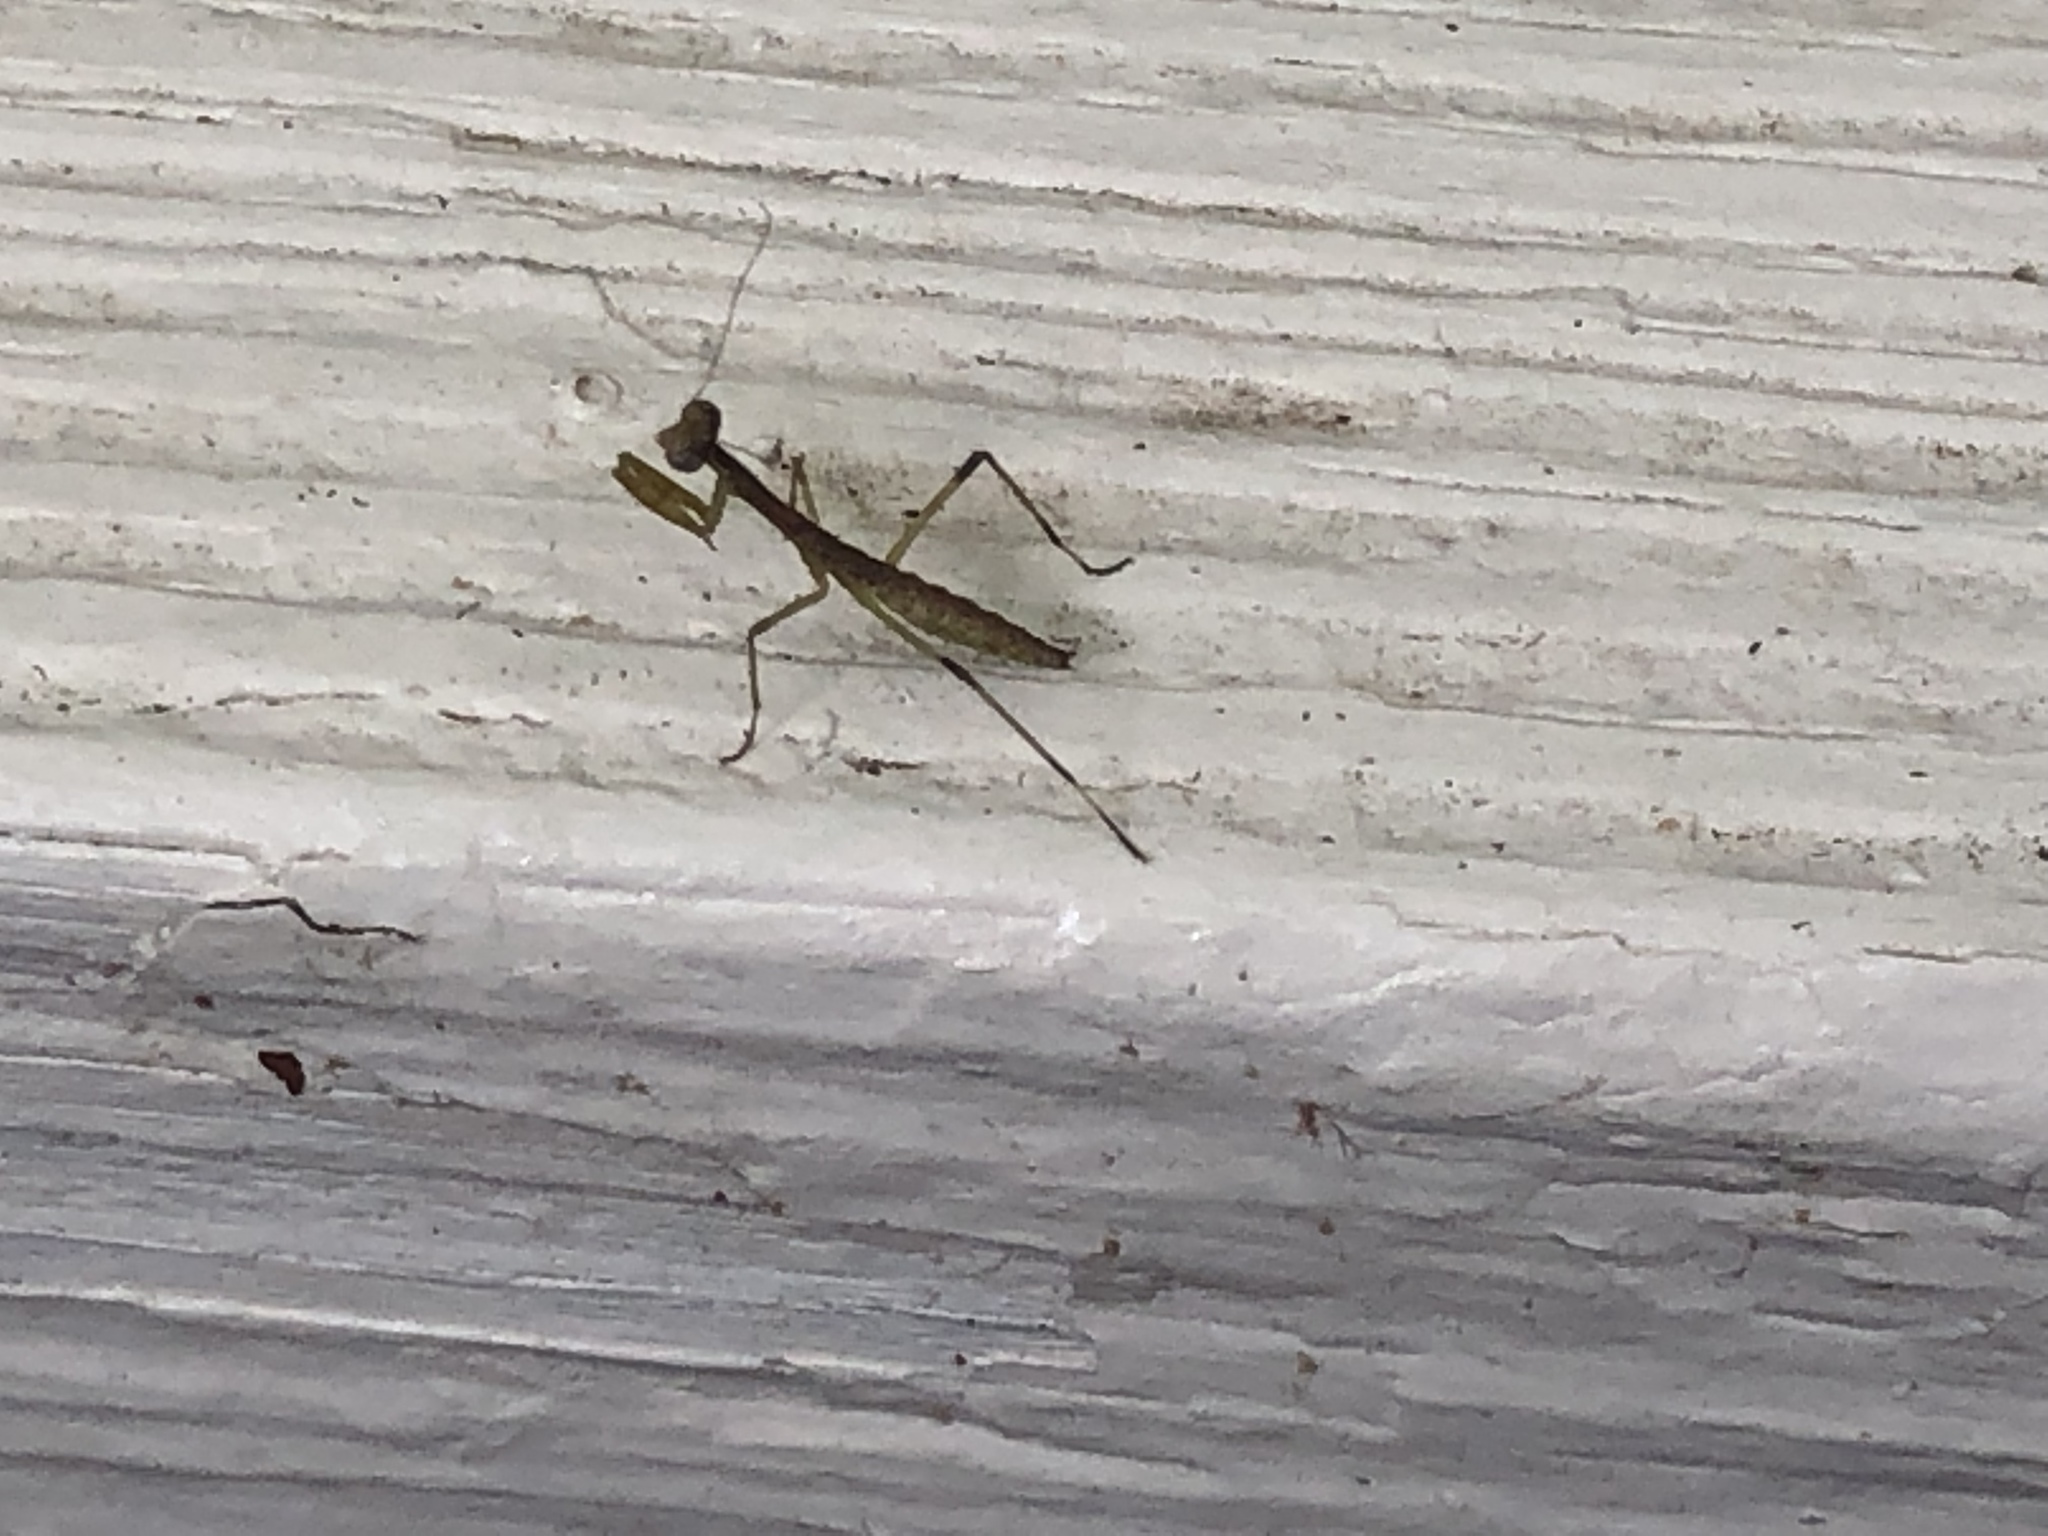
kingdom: Animalia
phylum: Arthropoda
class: Insecta
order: Mantodea
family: Mantidae
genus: Stagmomantis
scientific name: Stagmomantis carolina
